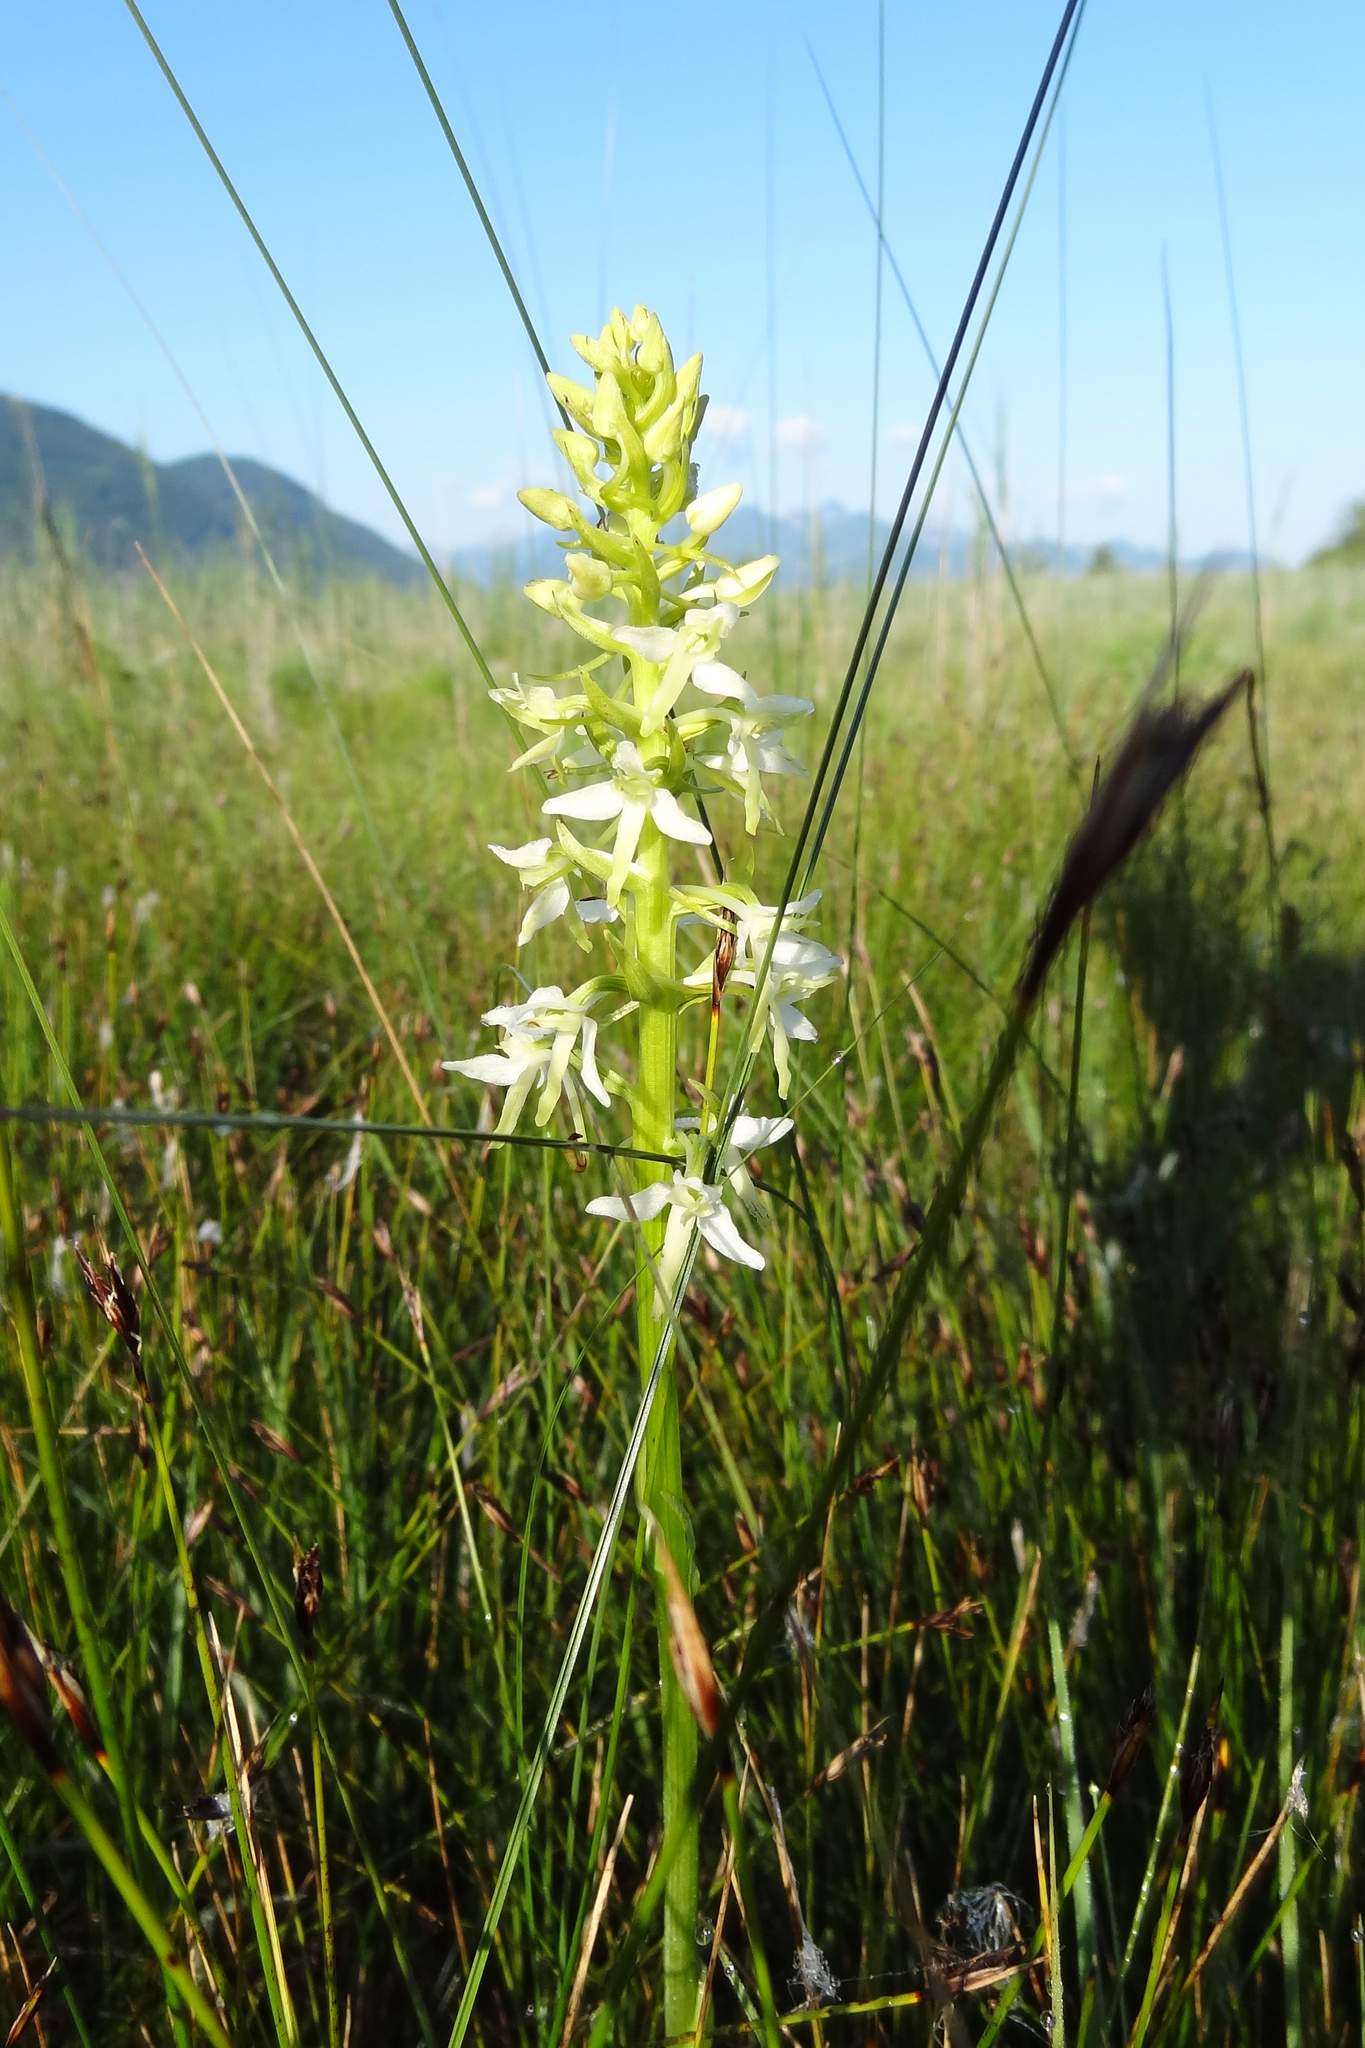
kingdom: Plantae
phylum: Tracheophyta
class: Liliopsida
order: Asparagales
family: Orchidaceae
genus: Platanthera
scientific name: Platanthera bifolia
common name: Lesser butterfly-orchid
